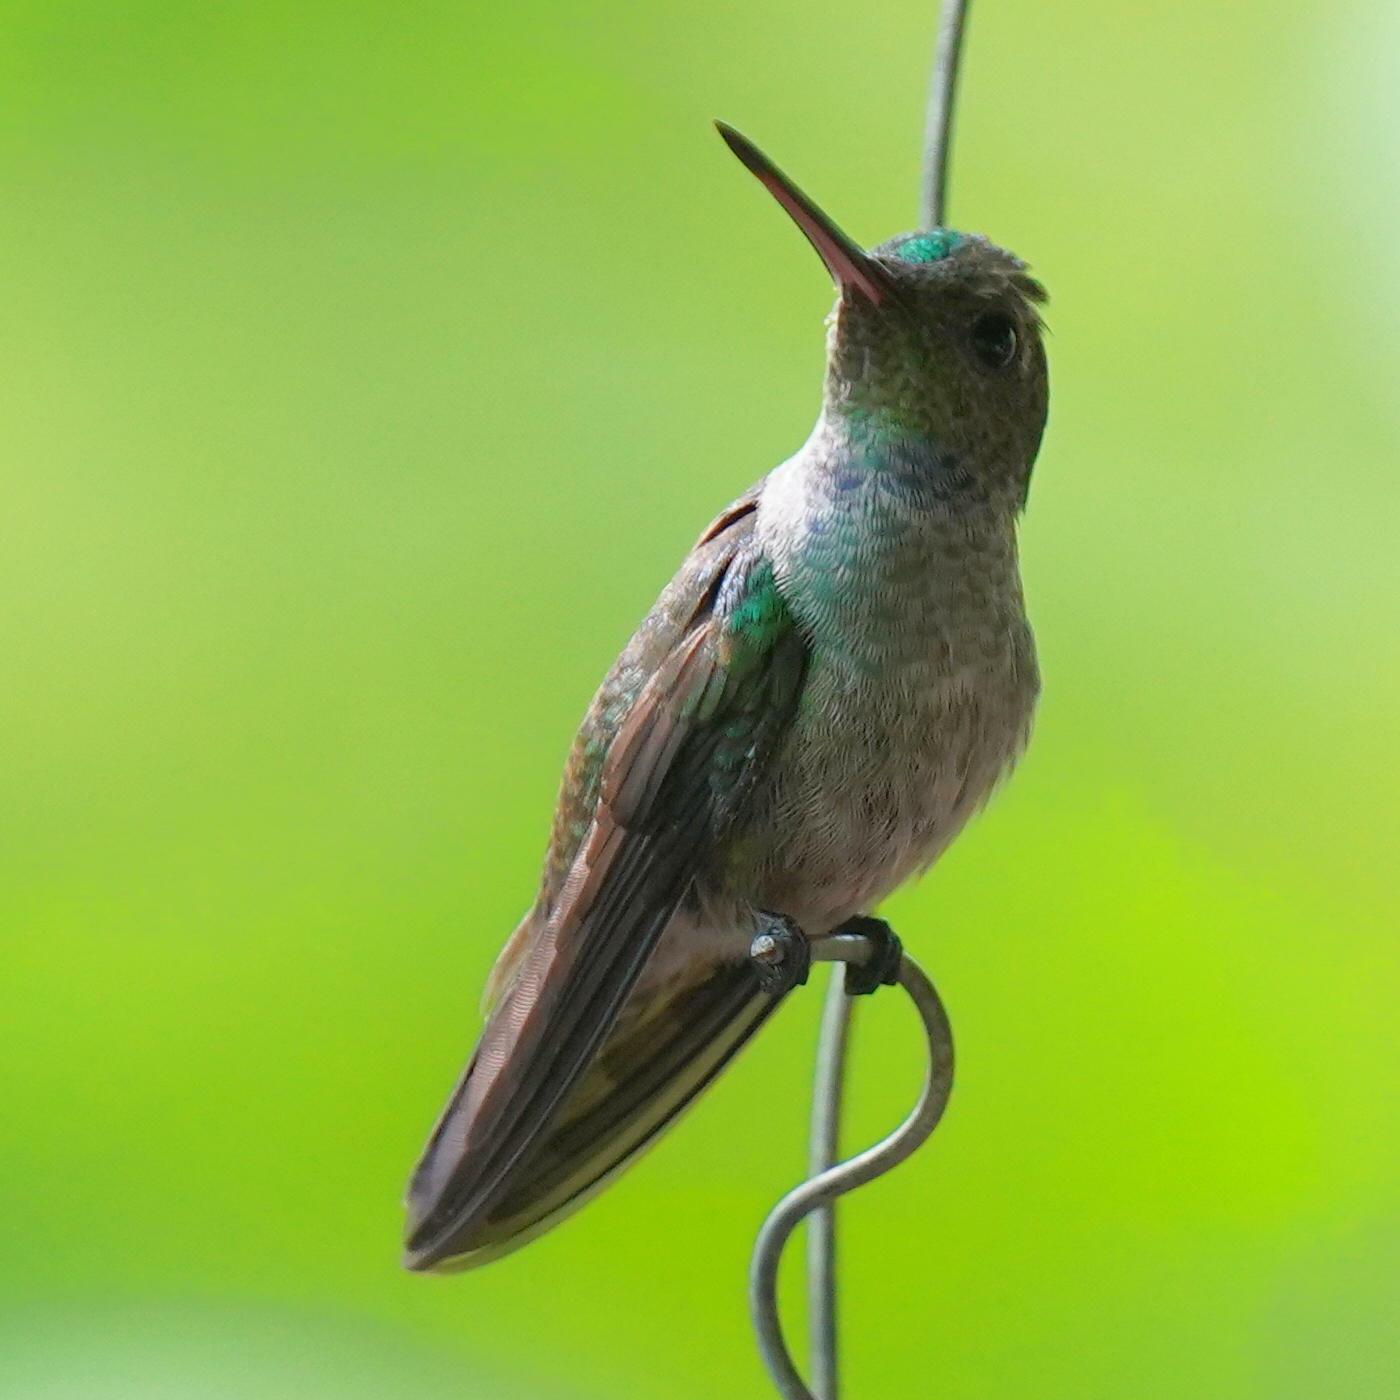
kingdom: Animalia
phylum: Chordata
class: Aves
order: Apodiformes
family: Trochilidae
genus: Polyerata
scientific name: Polyerata amabilis
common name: Blue-chested hummingbird
